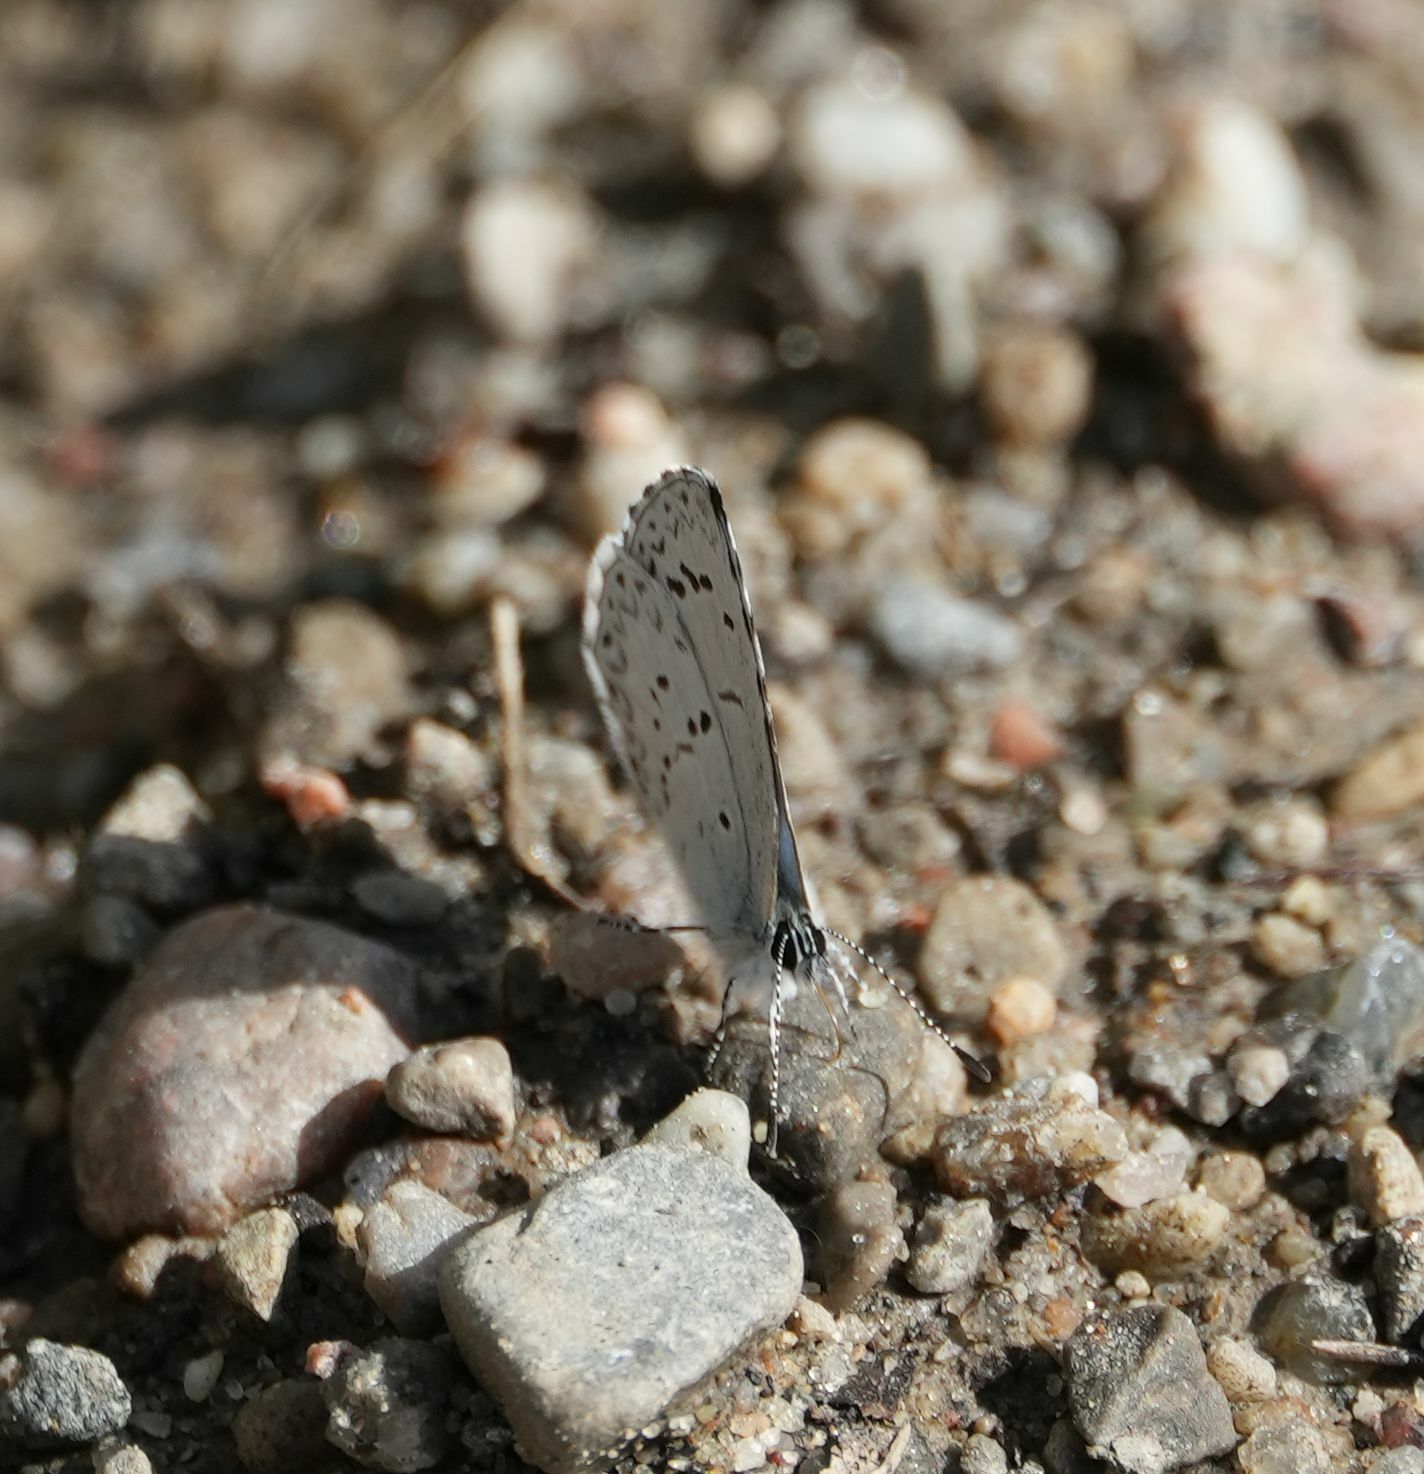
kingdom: Animalia
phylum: Arthropoda
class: Insecta
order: Lepidoptera
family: Lycaenidae
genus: Celastrina
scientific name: Celastrina lucia
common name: Lucia azure
